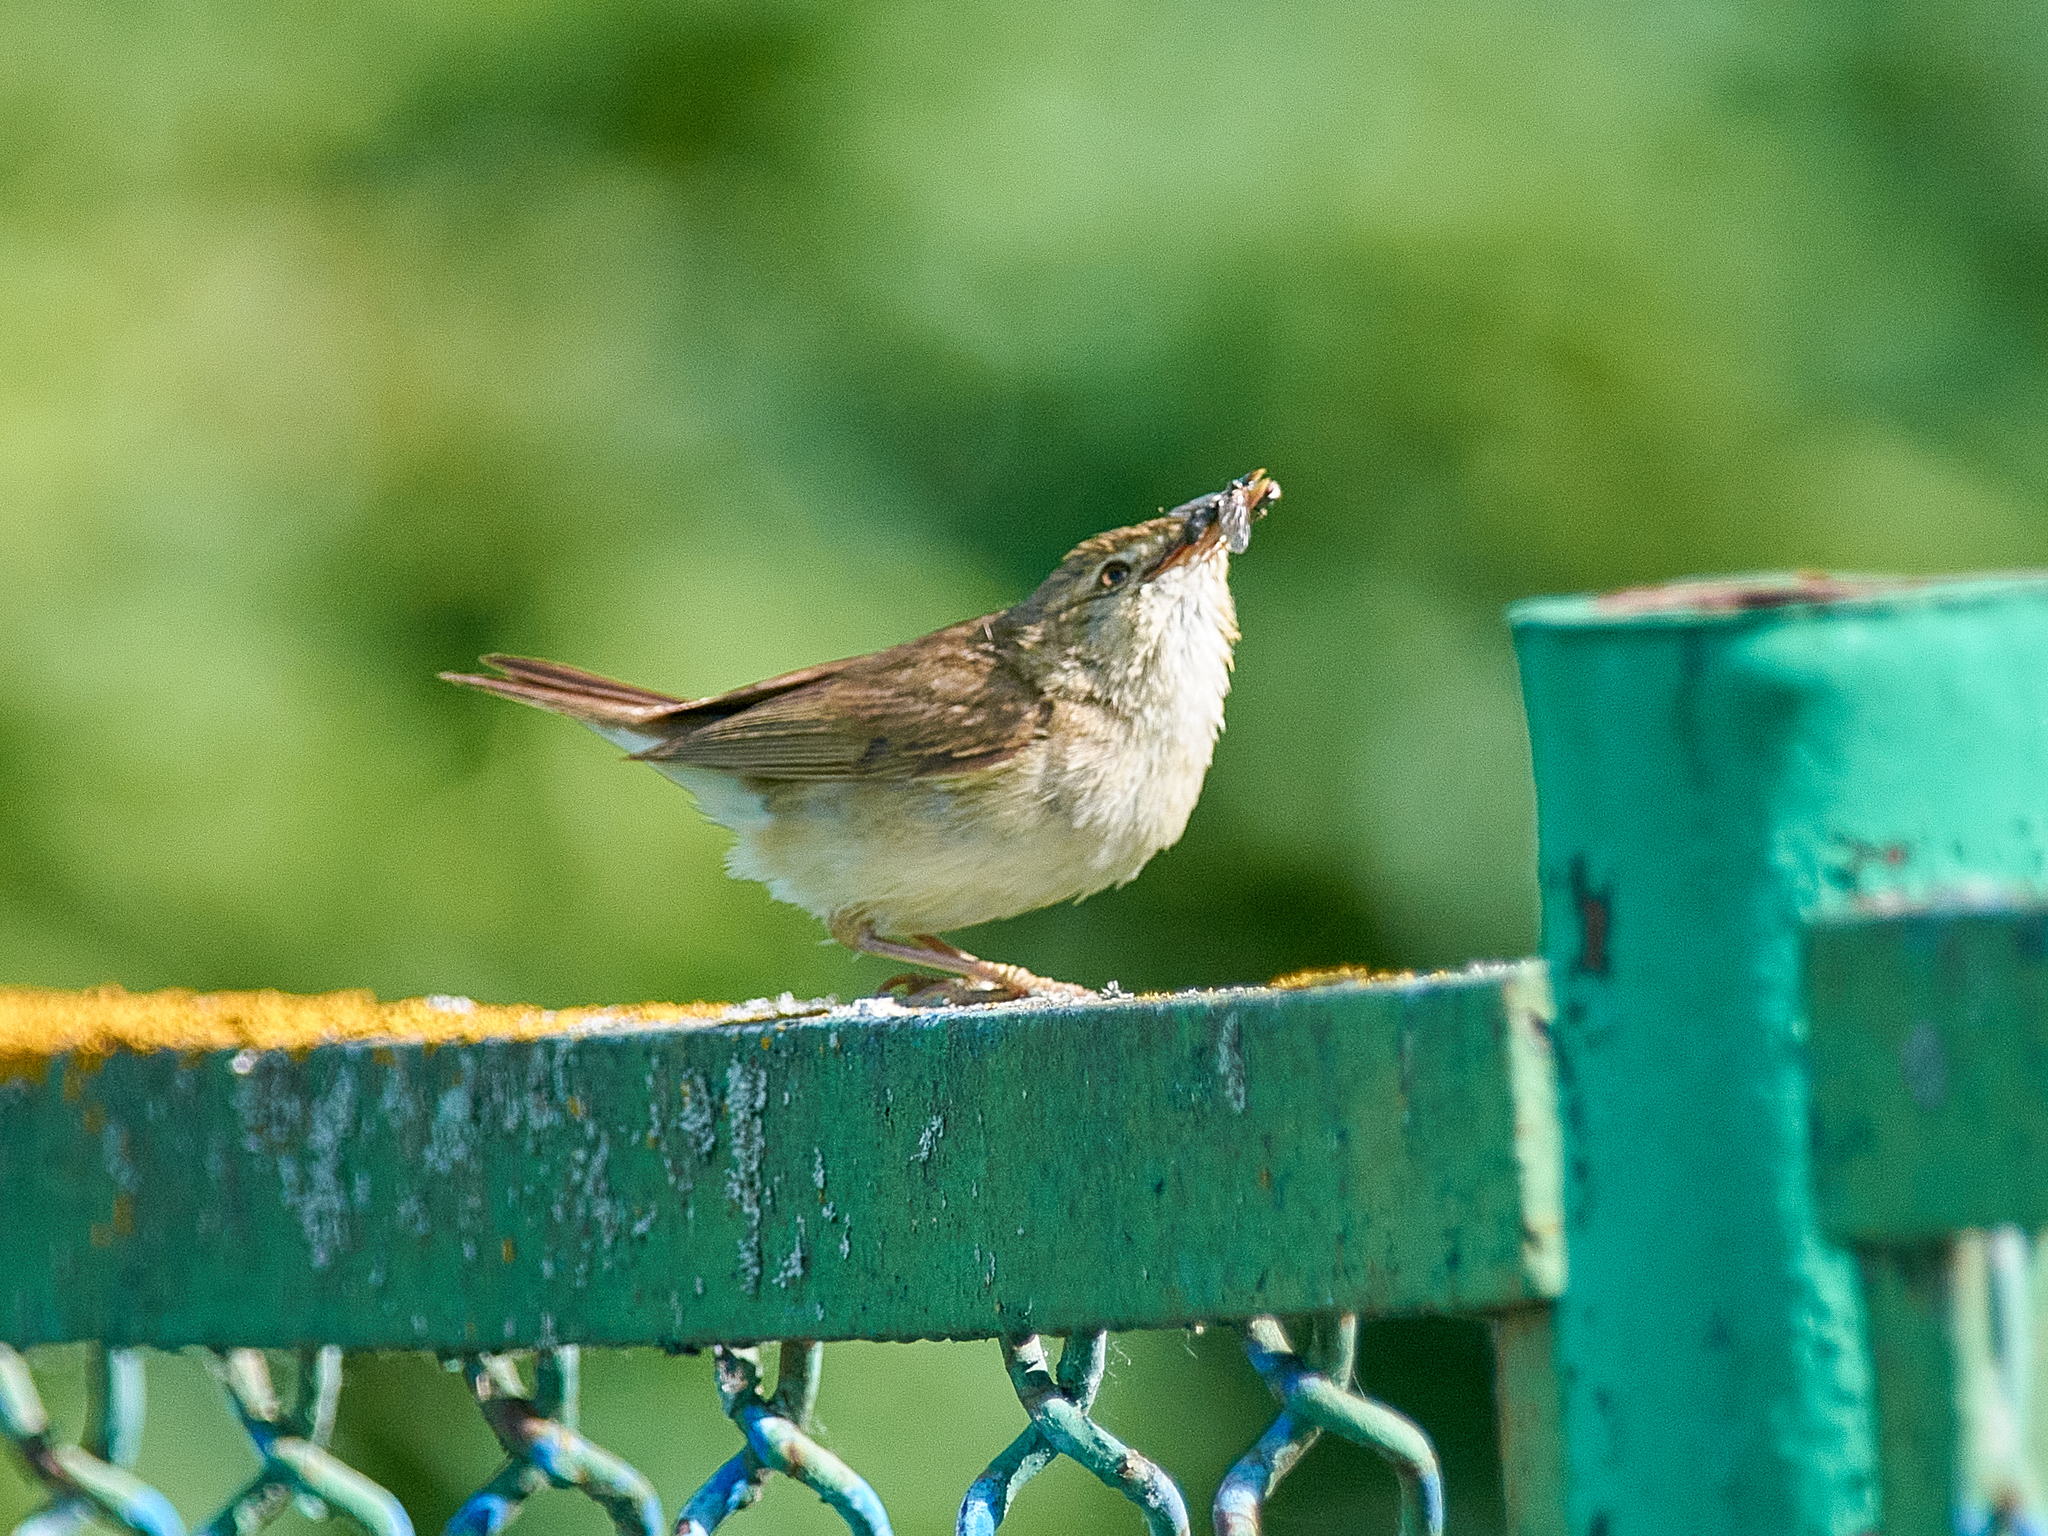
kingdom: Animalia
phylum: Chordata
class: Aves
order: Passeriformes
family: Acrocephalidae
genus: Acrocephalus
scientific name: Acrocephalus dumetorum
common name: Blyth's reed warbler
